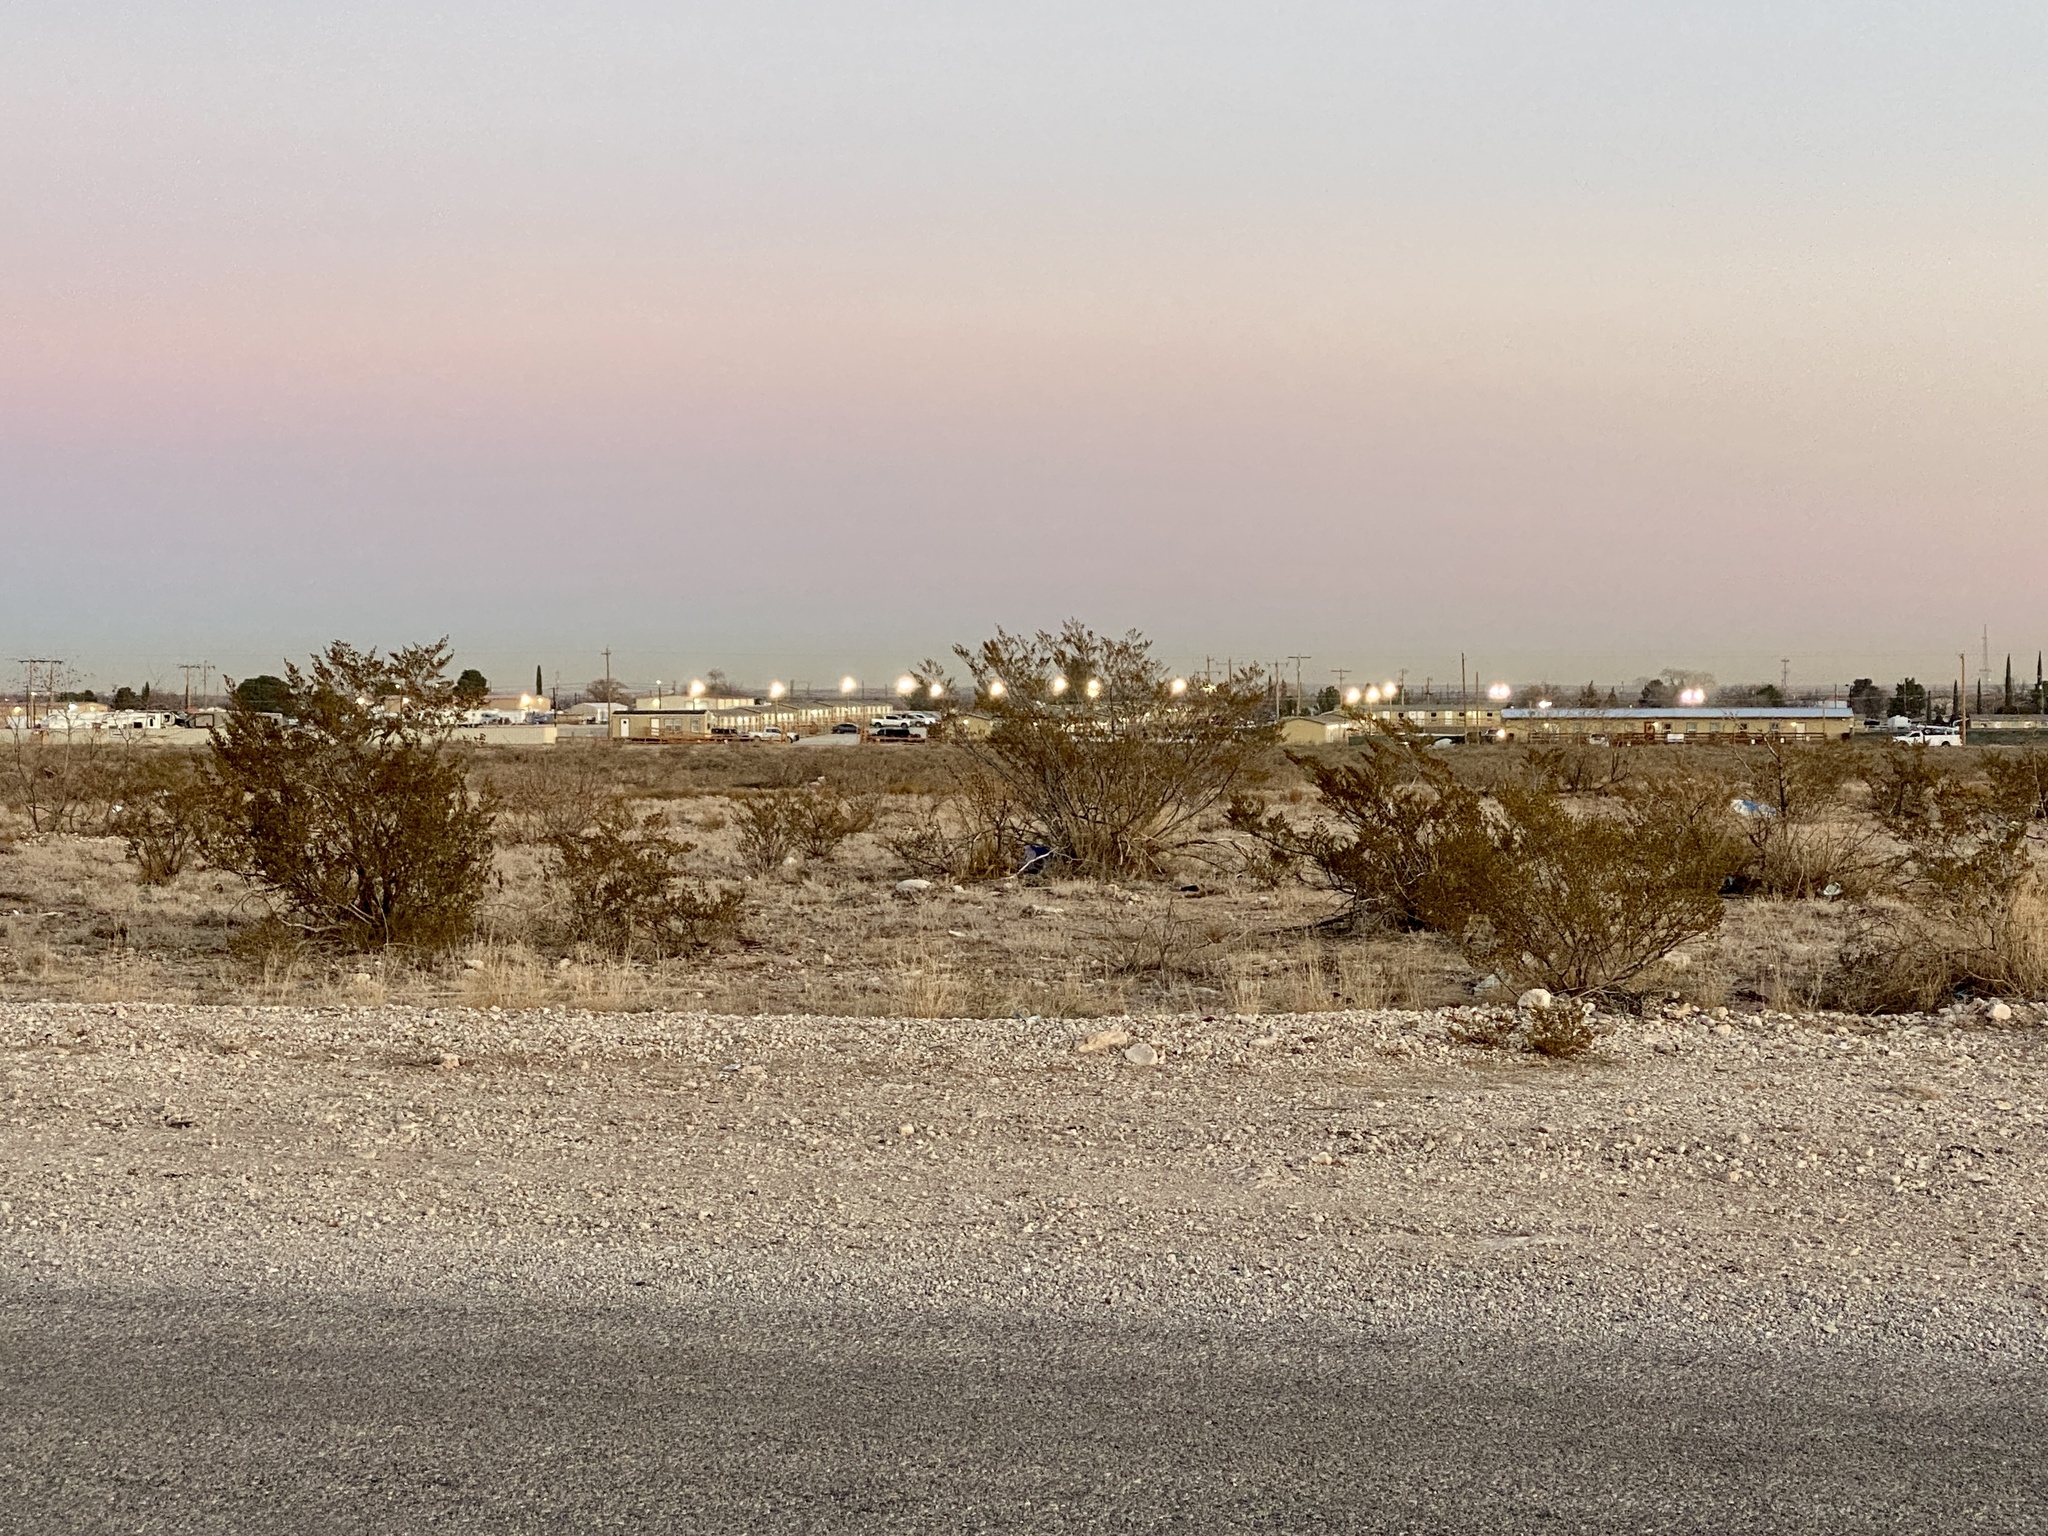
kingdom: Plantae
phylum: Tracheophyta
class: Magnoliopsida
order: Zygophyllales
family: Zygophyllaceae
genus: Larrea
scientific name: Larrea tridentata
